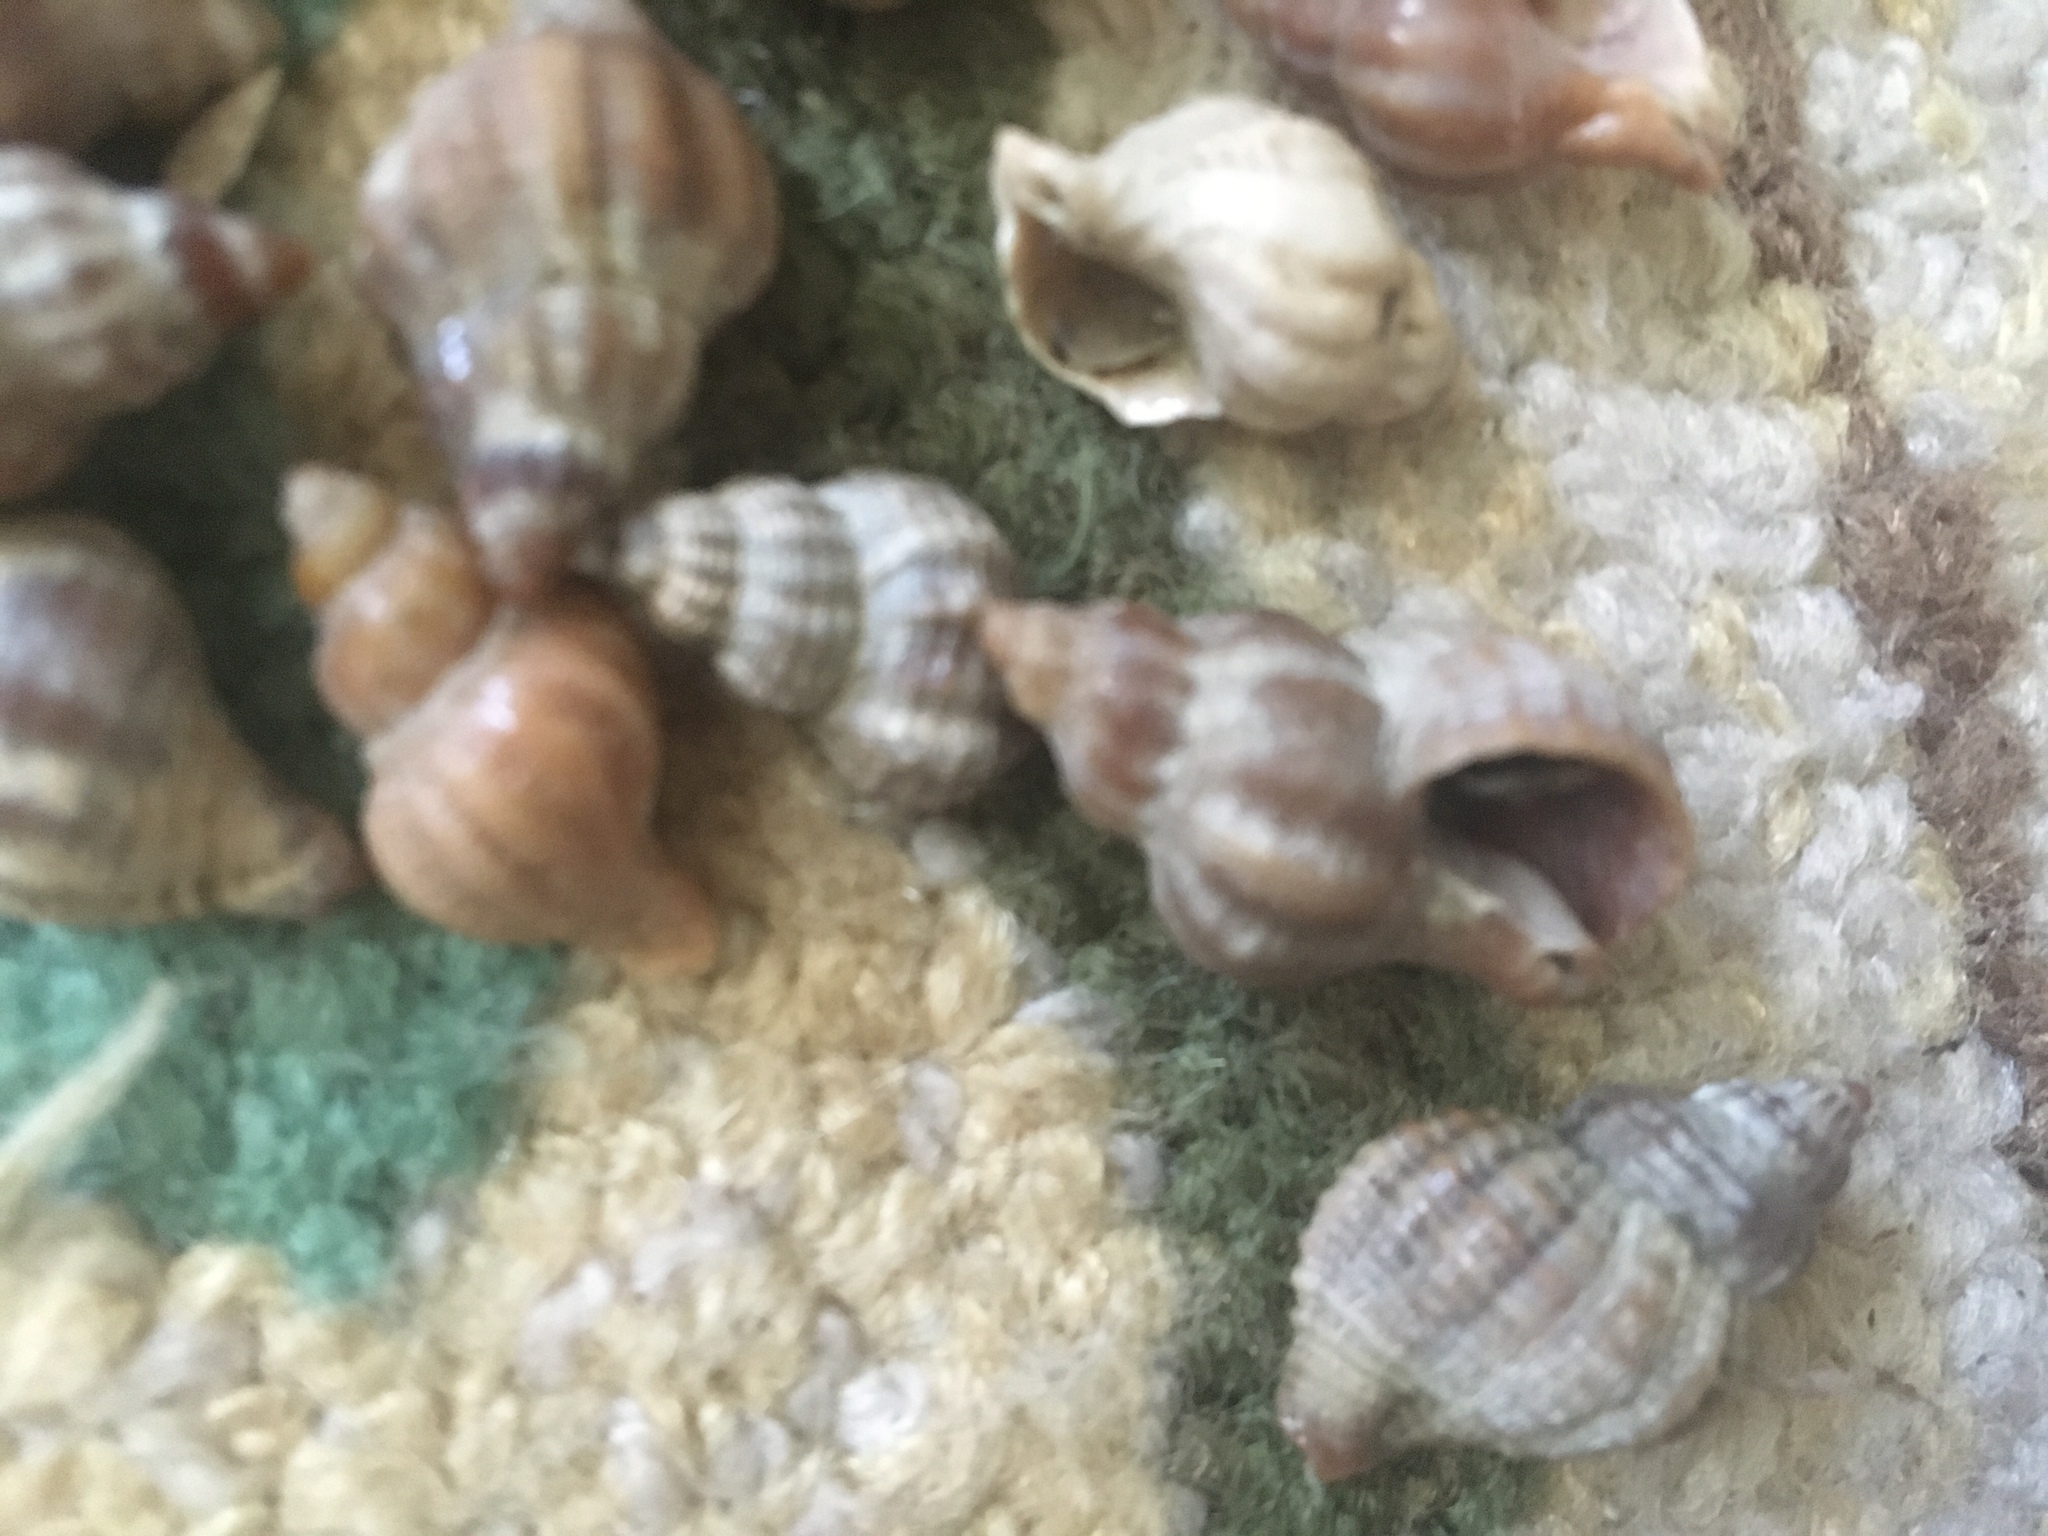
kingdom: Animalia
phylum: Mollusca
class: Gastropoda
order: Neogastropoda
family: Muricidae
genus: Urosalpinx
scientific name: Urosalpinx cinerea
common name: American sting winkle
